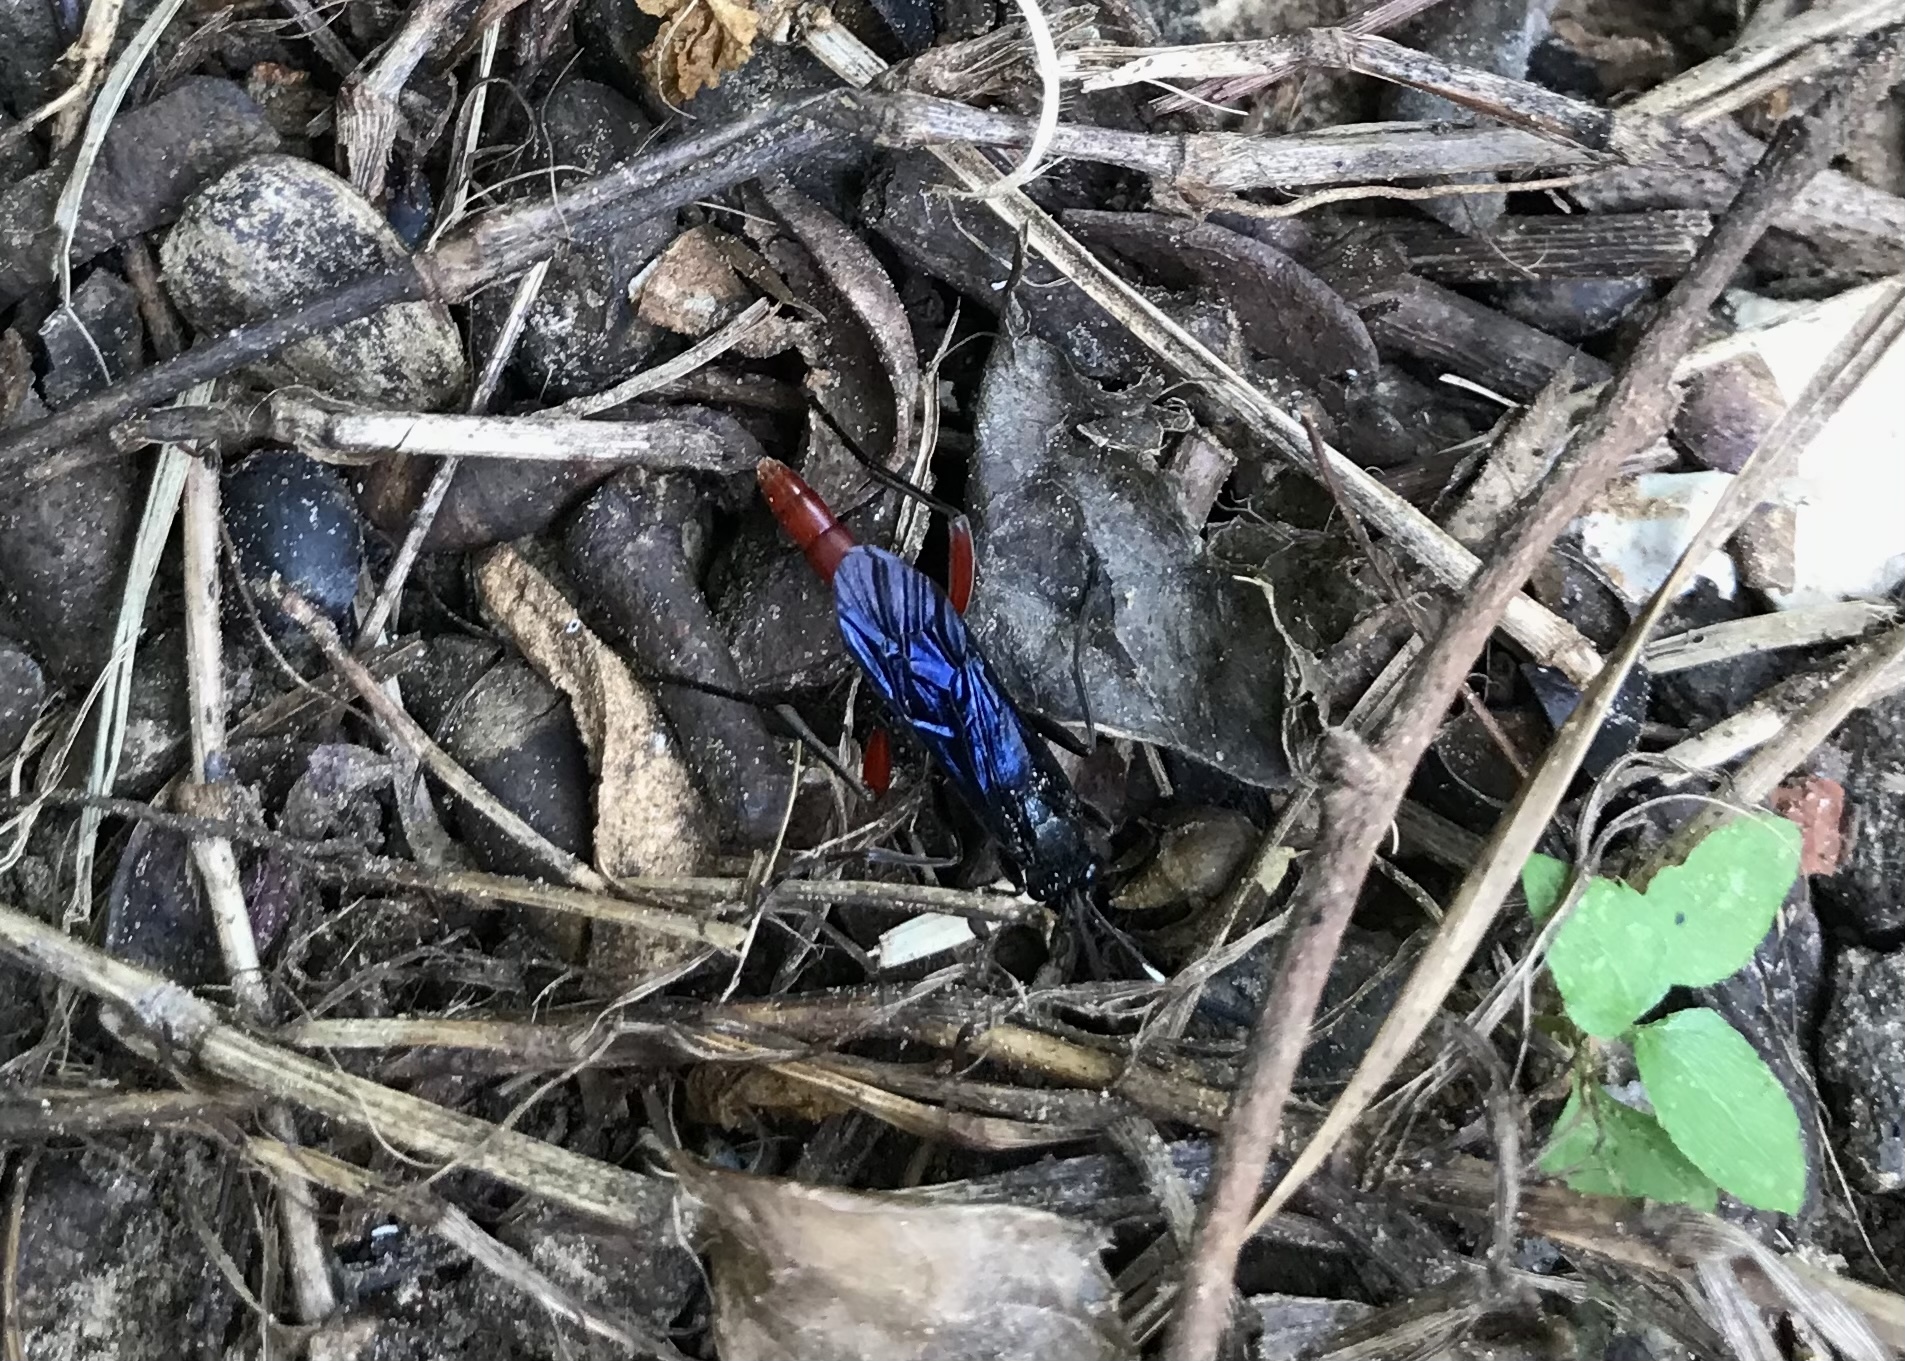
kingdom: Animalia
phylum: Arthropoda
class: Insecta
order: Hymenoptera
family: Ichneumonidae
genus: Limonethe
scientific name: Limonethe maurator
